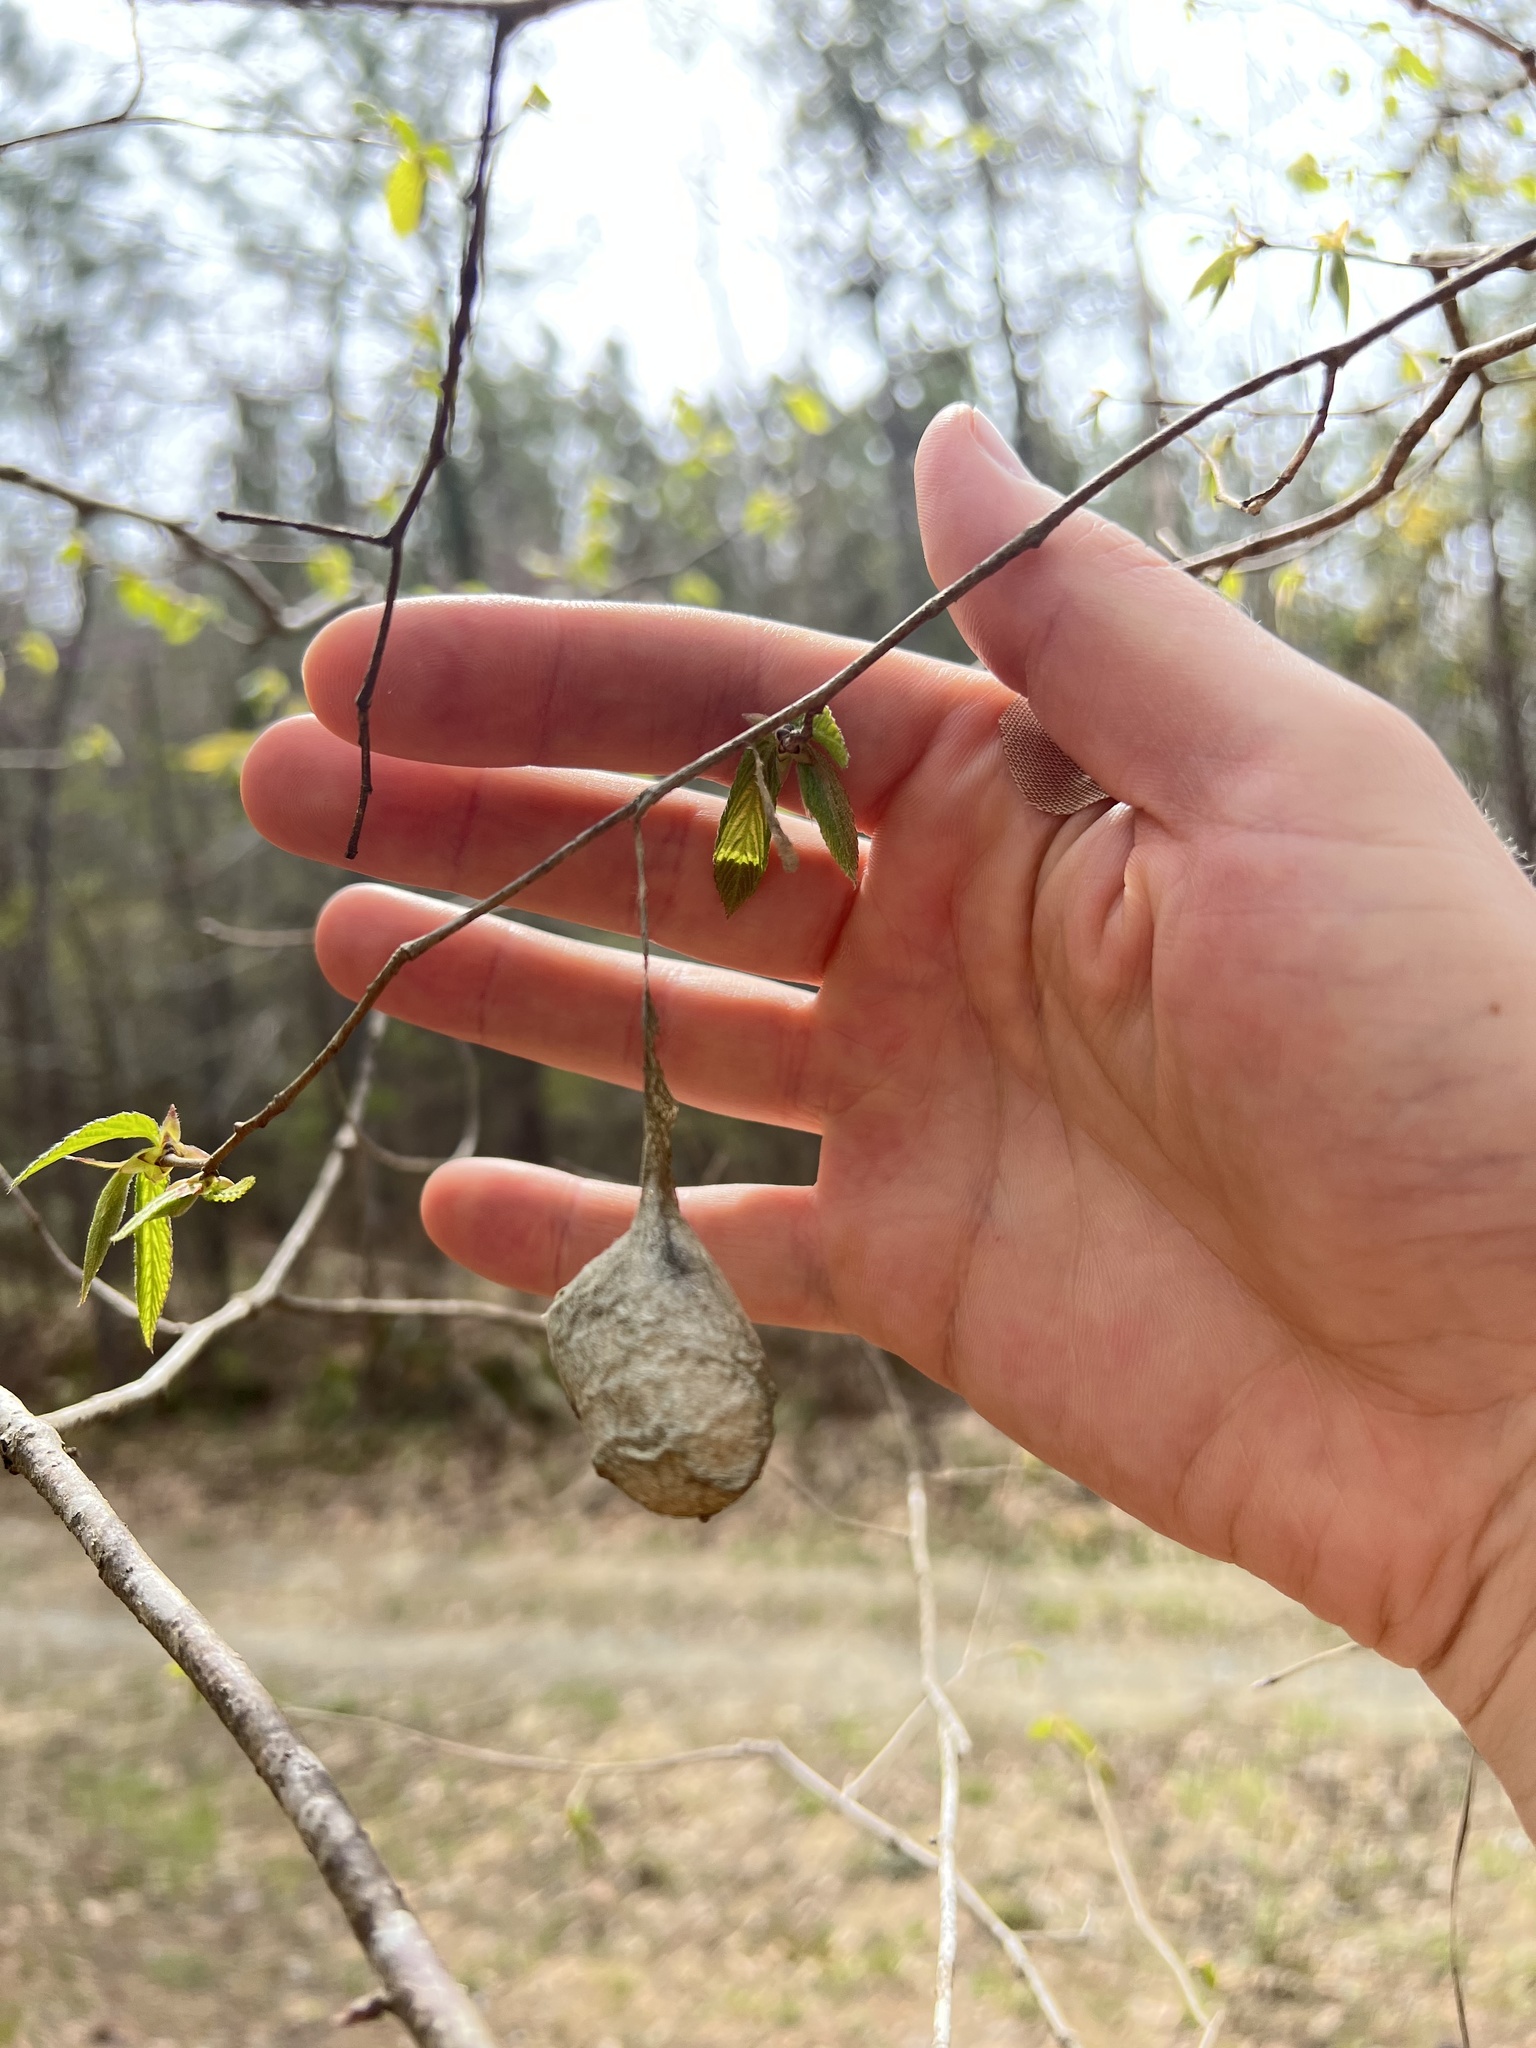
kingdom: Animalia
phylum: Arthropoda
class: Insecta
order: Lepidoptera
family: Saturniidae
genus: Antheraea
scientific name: Antheraea polyphemus
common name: Polyphemus moth
